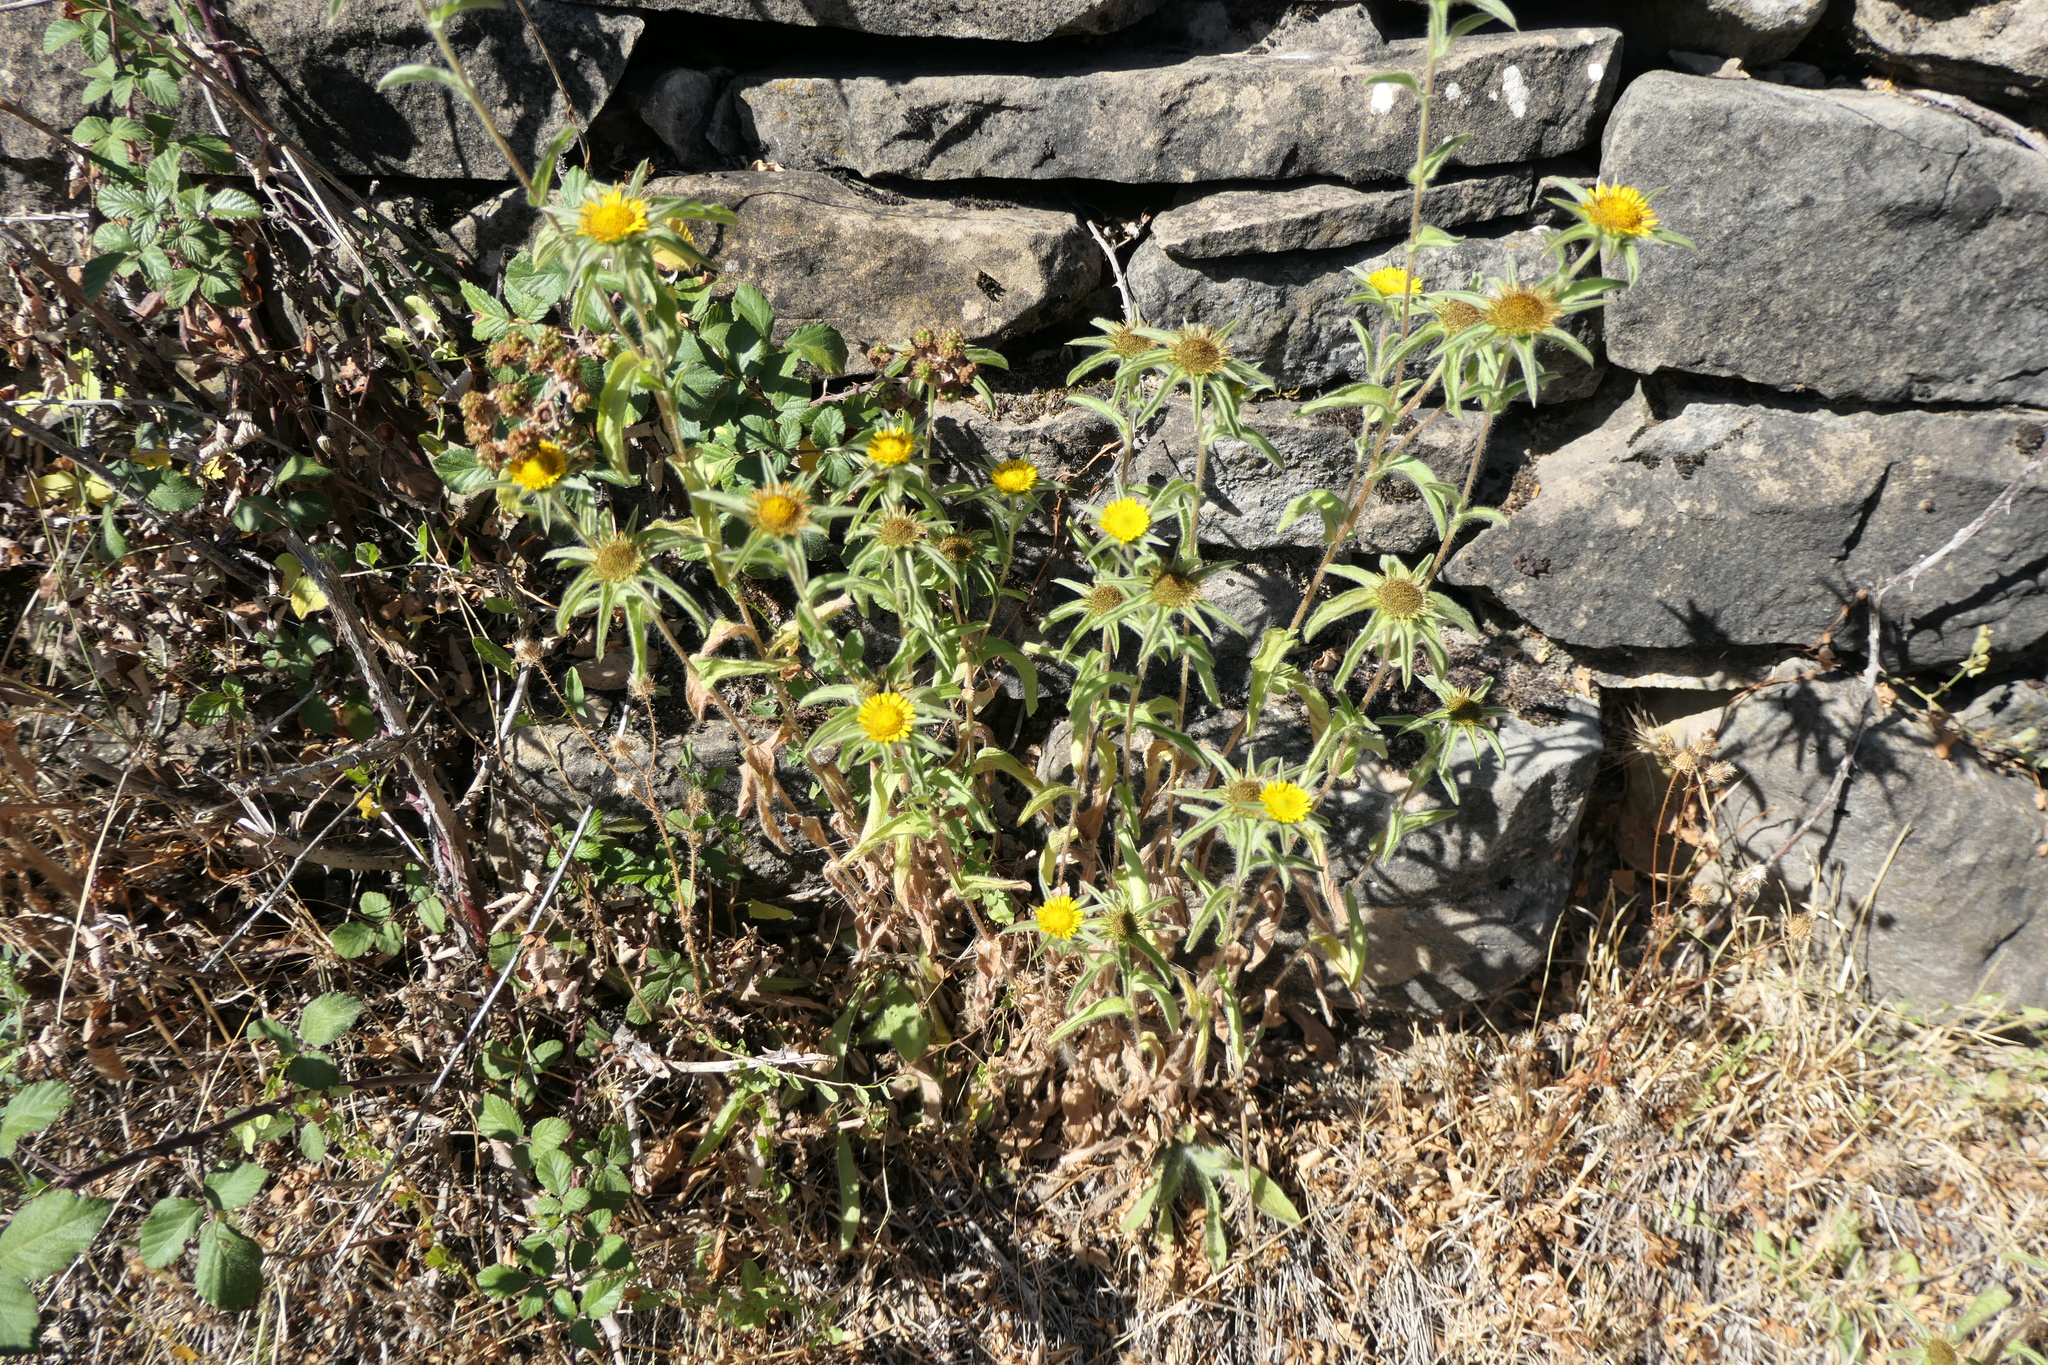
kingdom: Plantae
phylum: Tracheophyta
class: Magnoliopsida
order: Asterales
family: Asteraceae
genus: Pallenis
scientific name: Pallenis spinosa
